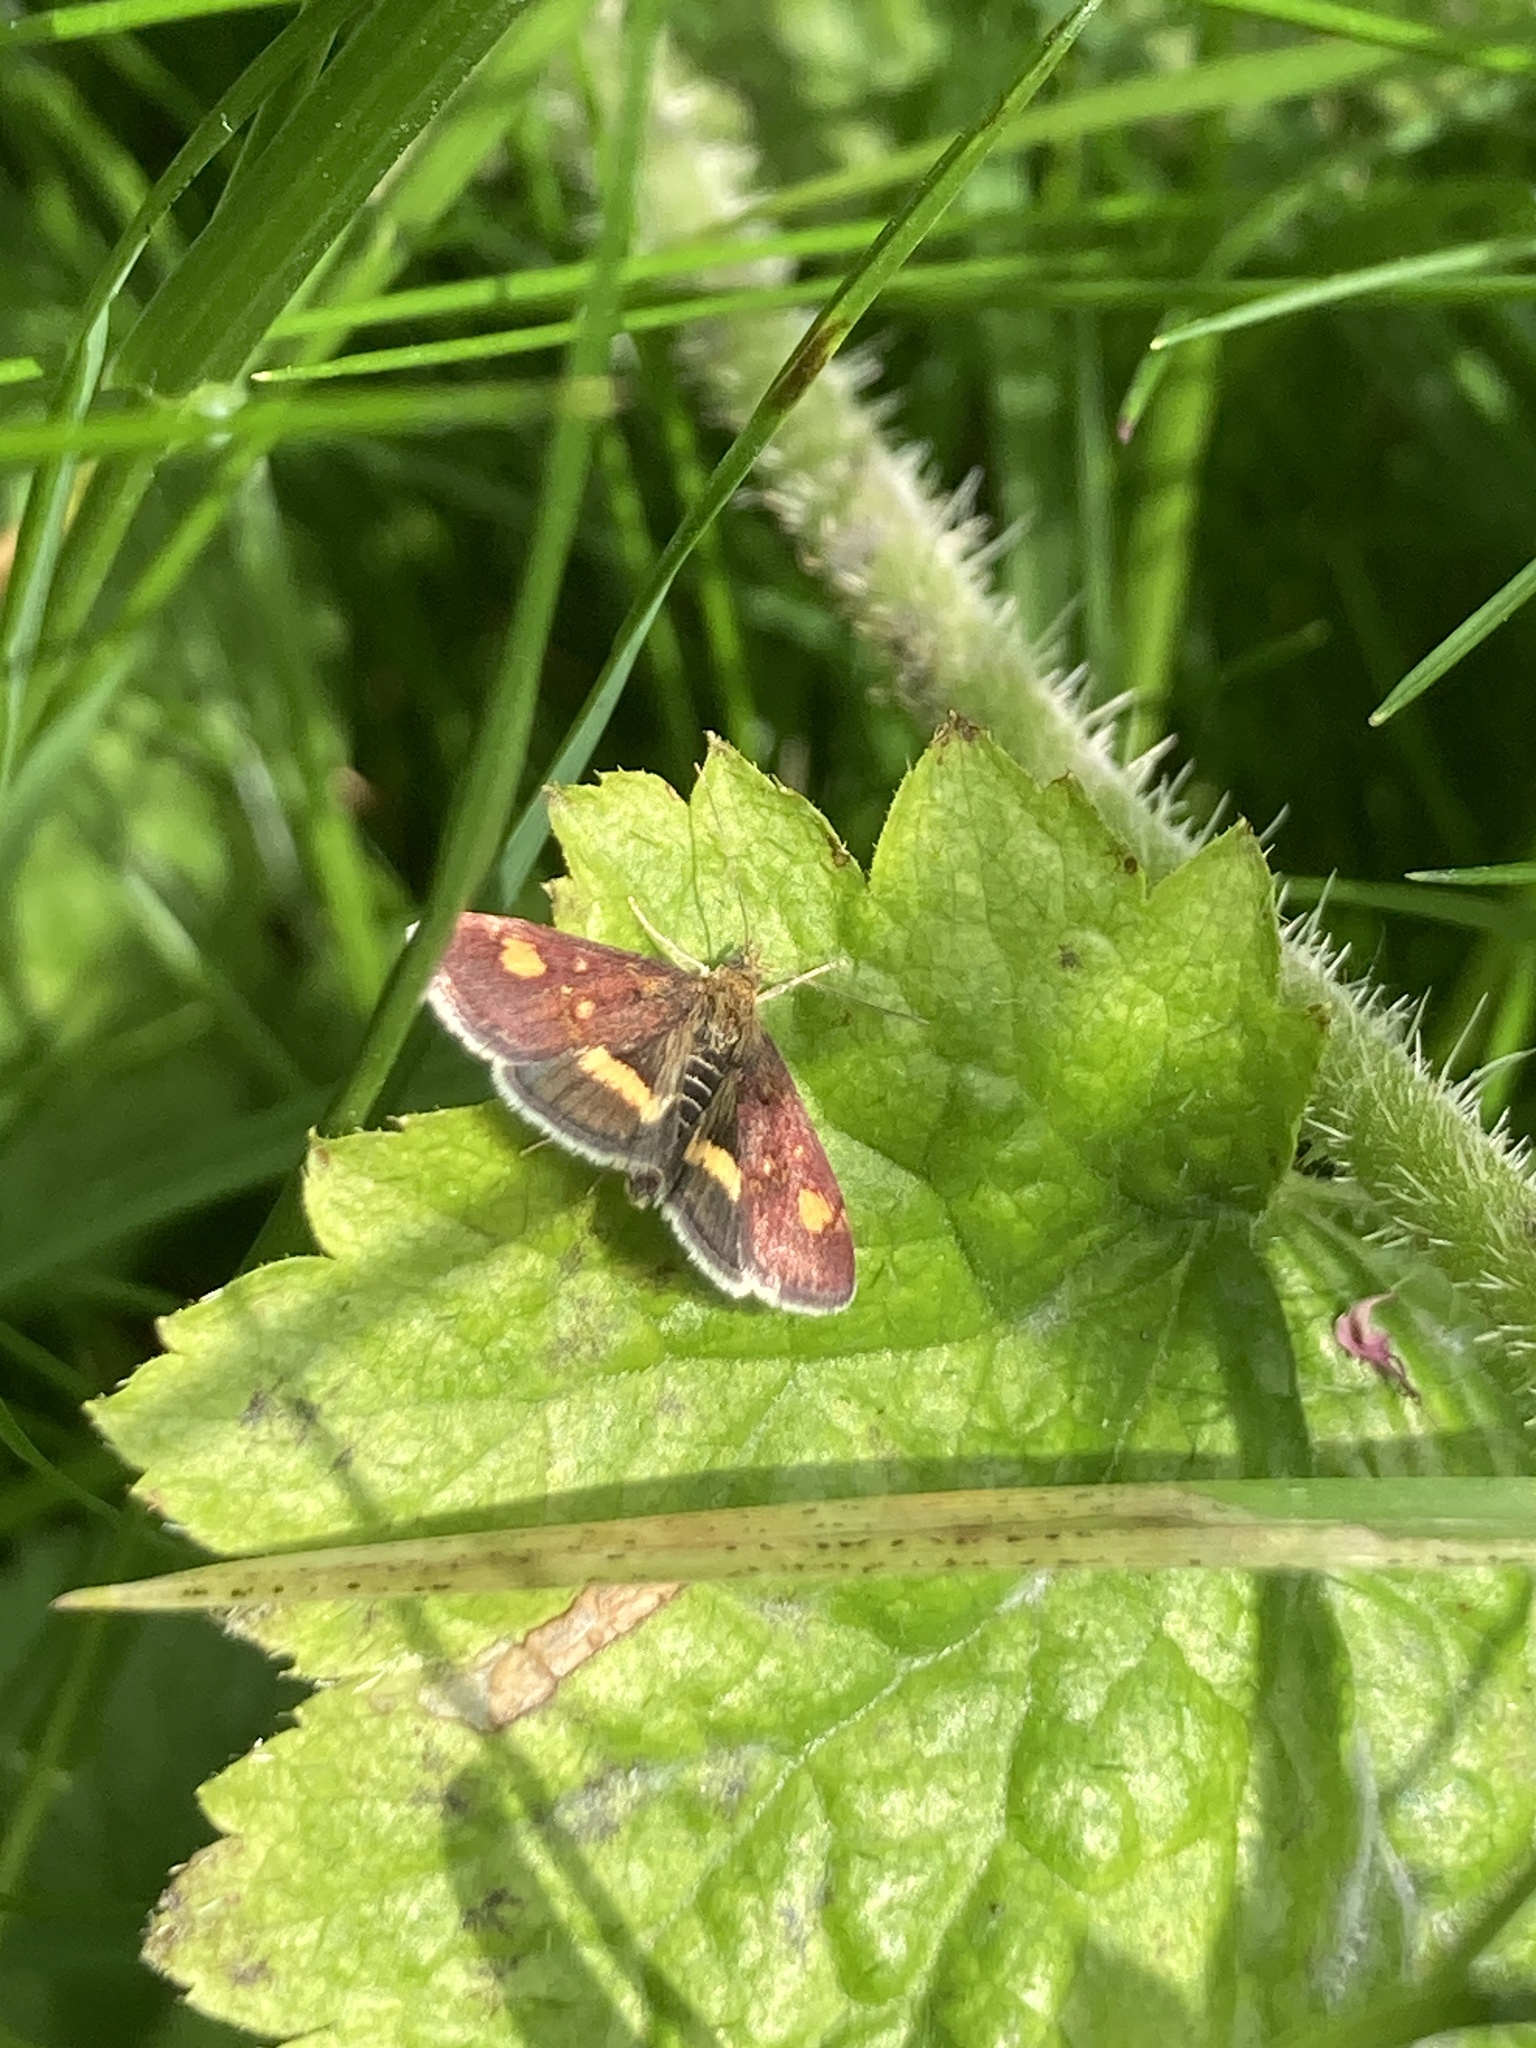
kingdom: Animalia
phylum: Arthropoda
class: Insecta
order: Lepidoptera
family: Crambidae
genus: Pyrausta
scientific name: Pyrausta aurata
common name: Small purple & gold
